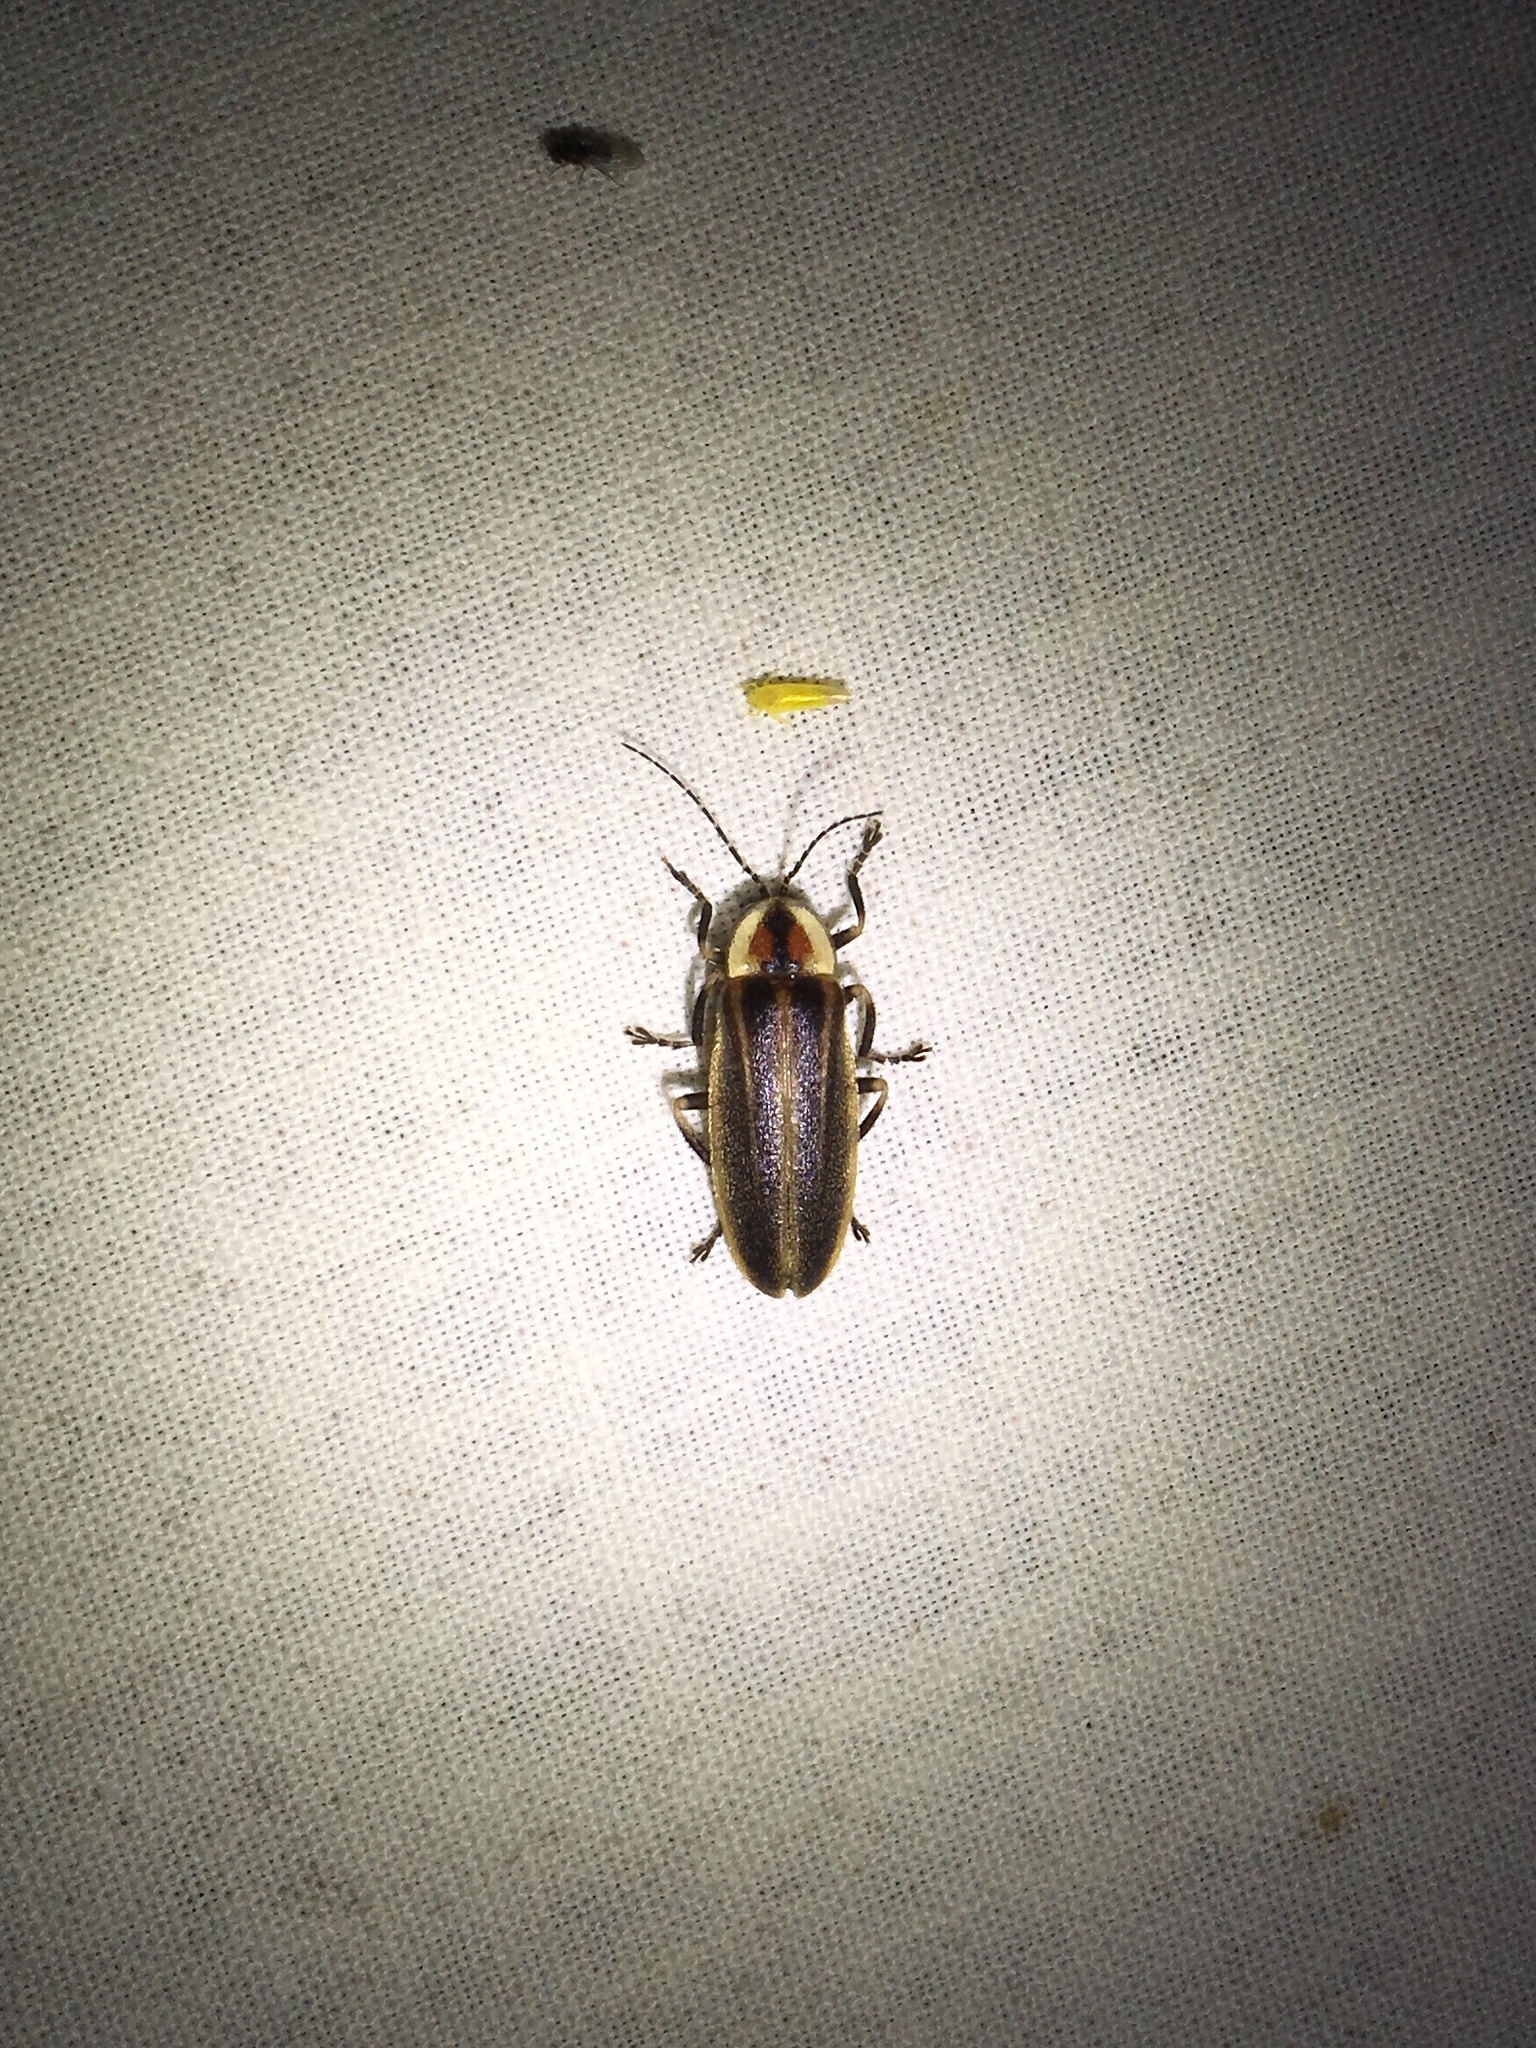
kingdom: Animalia
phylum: Arthropoda
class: Insecta
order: Coleoptera
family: Lampyridae
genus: Photuris
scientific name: Photuris
